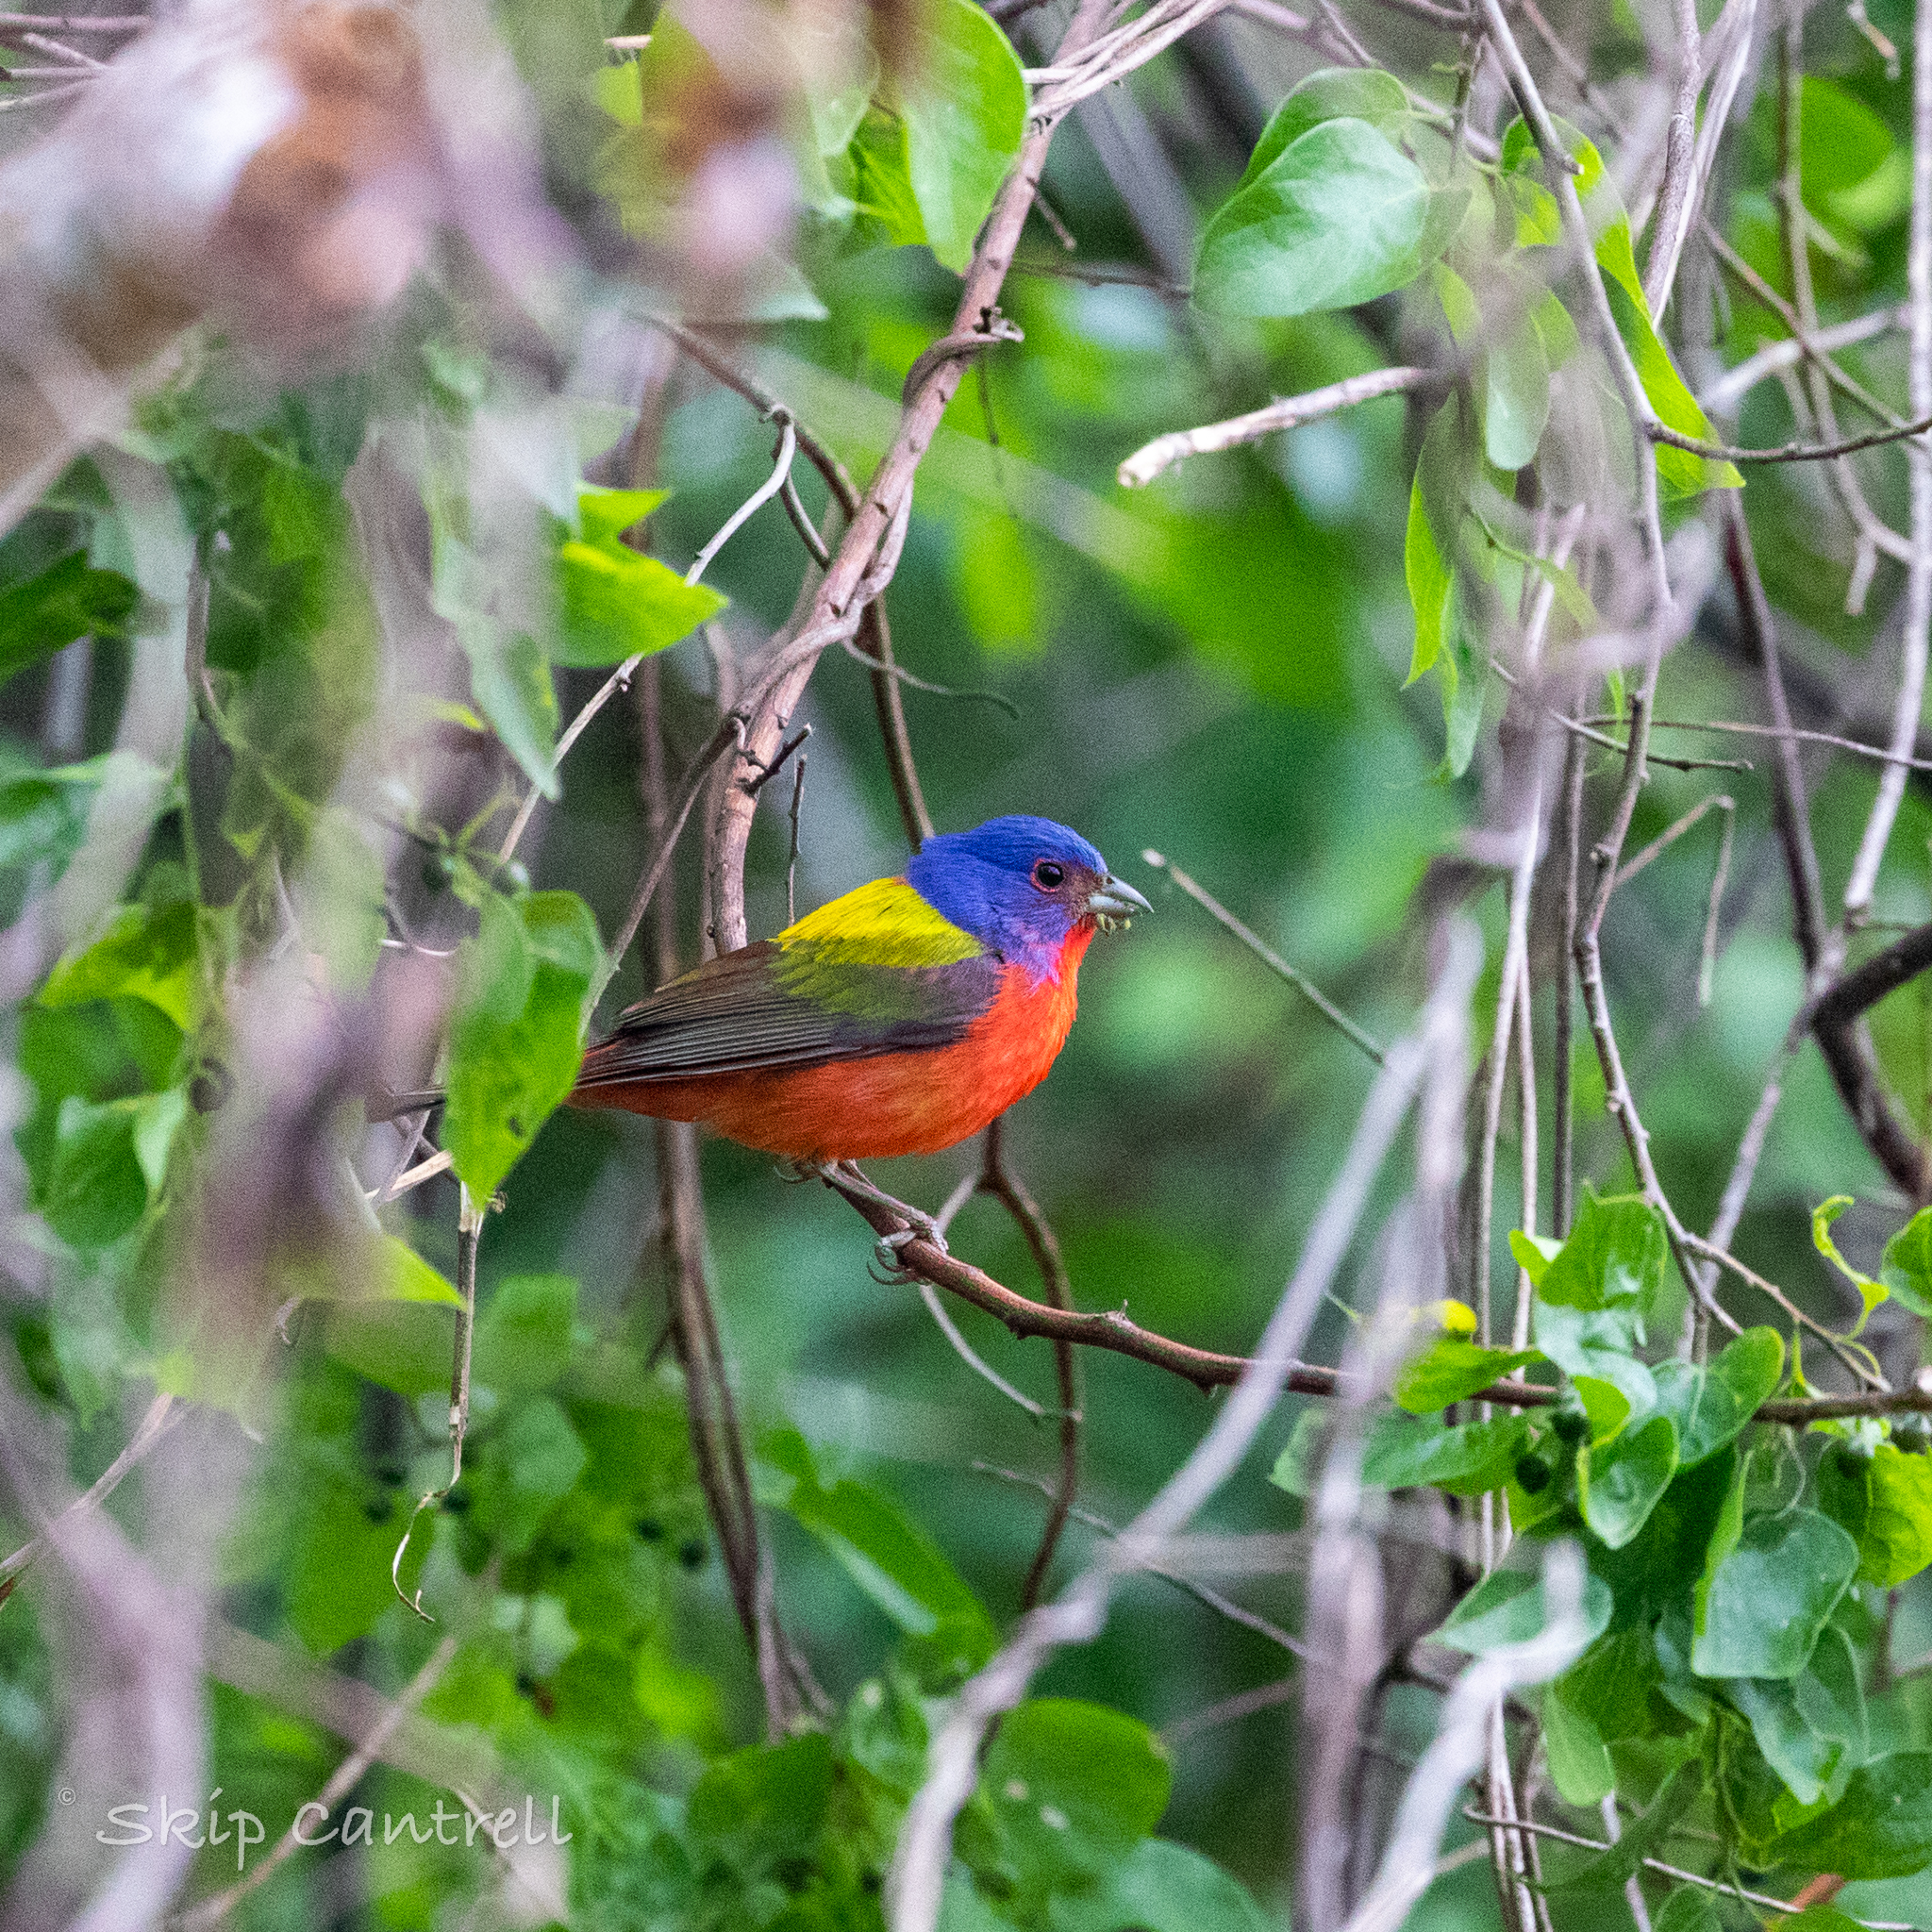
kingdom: Animalia
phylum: Chordata
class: Aves
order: Passeriformes
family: Cardinalidae
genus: Passerina
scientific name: Passerina ciris
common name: Painted bunting
